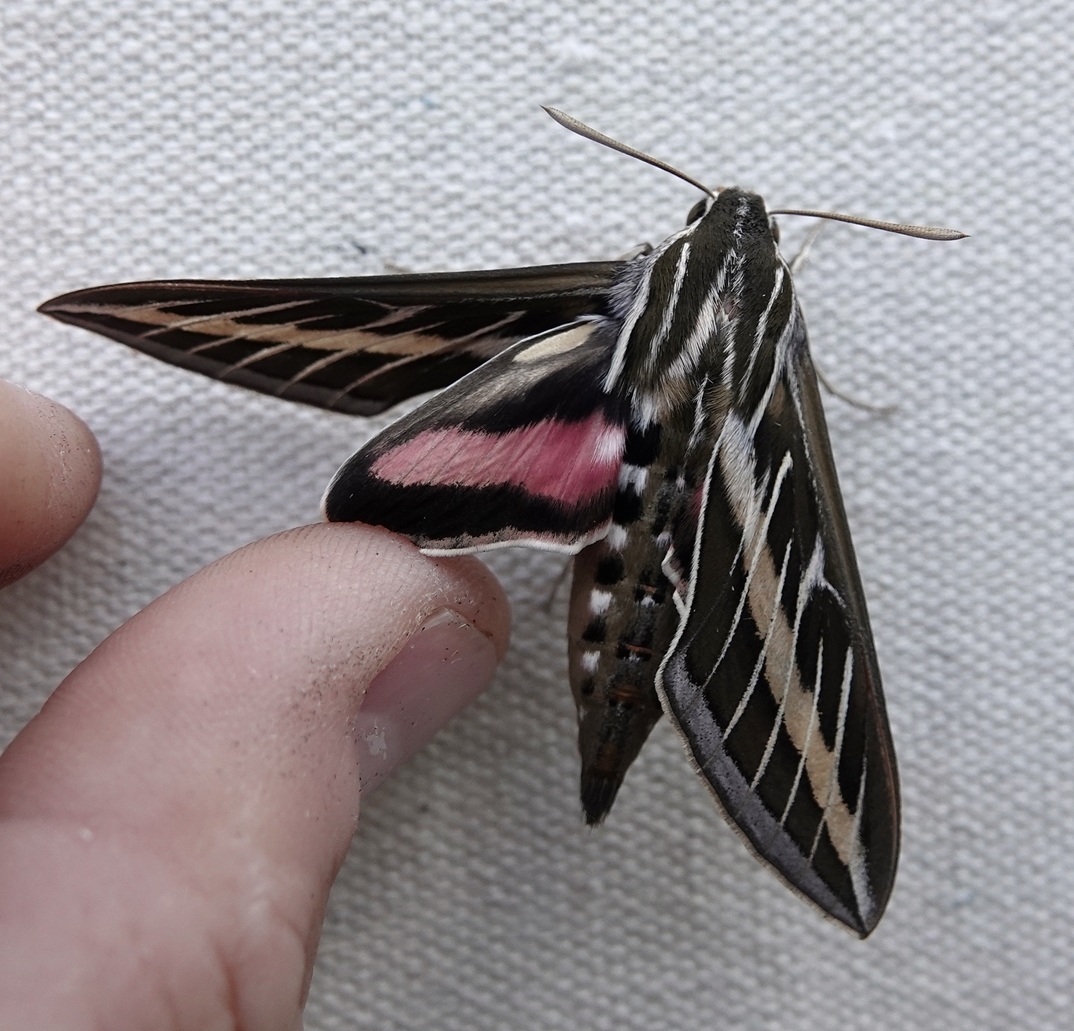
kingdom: Animalia
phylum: Arthropoda
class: Insecta
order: Lepidoptera
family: Sphingidae
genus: Hyles
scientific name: Hyles lineata
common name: White-lined sphinx
